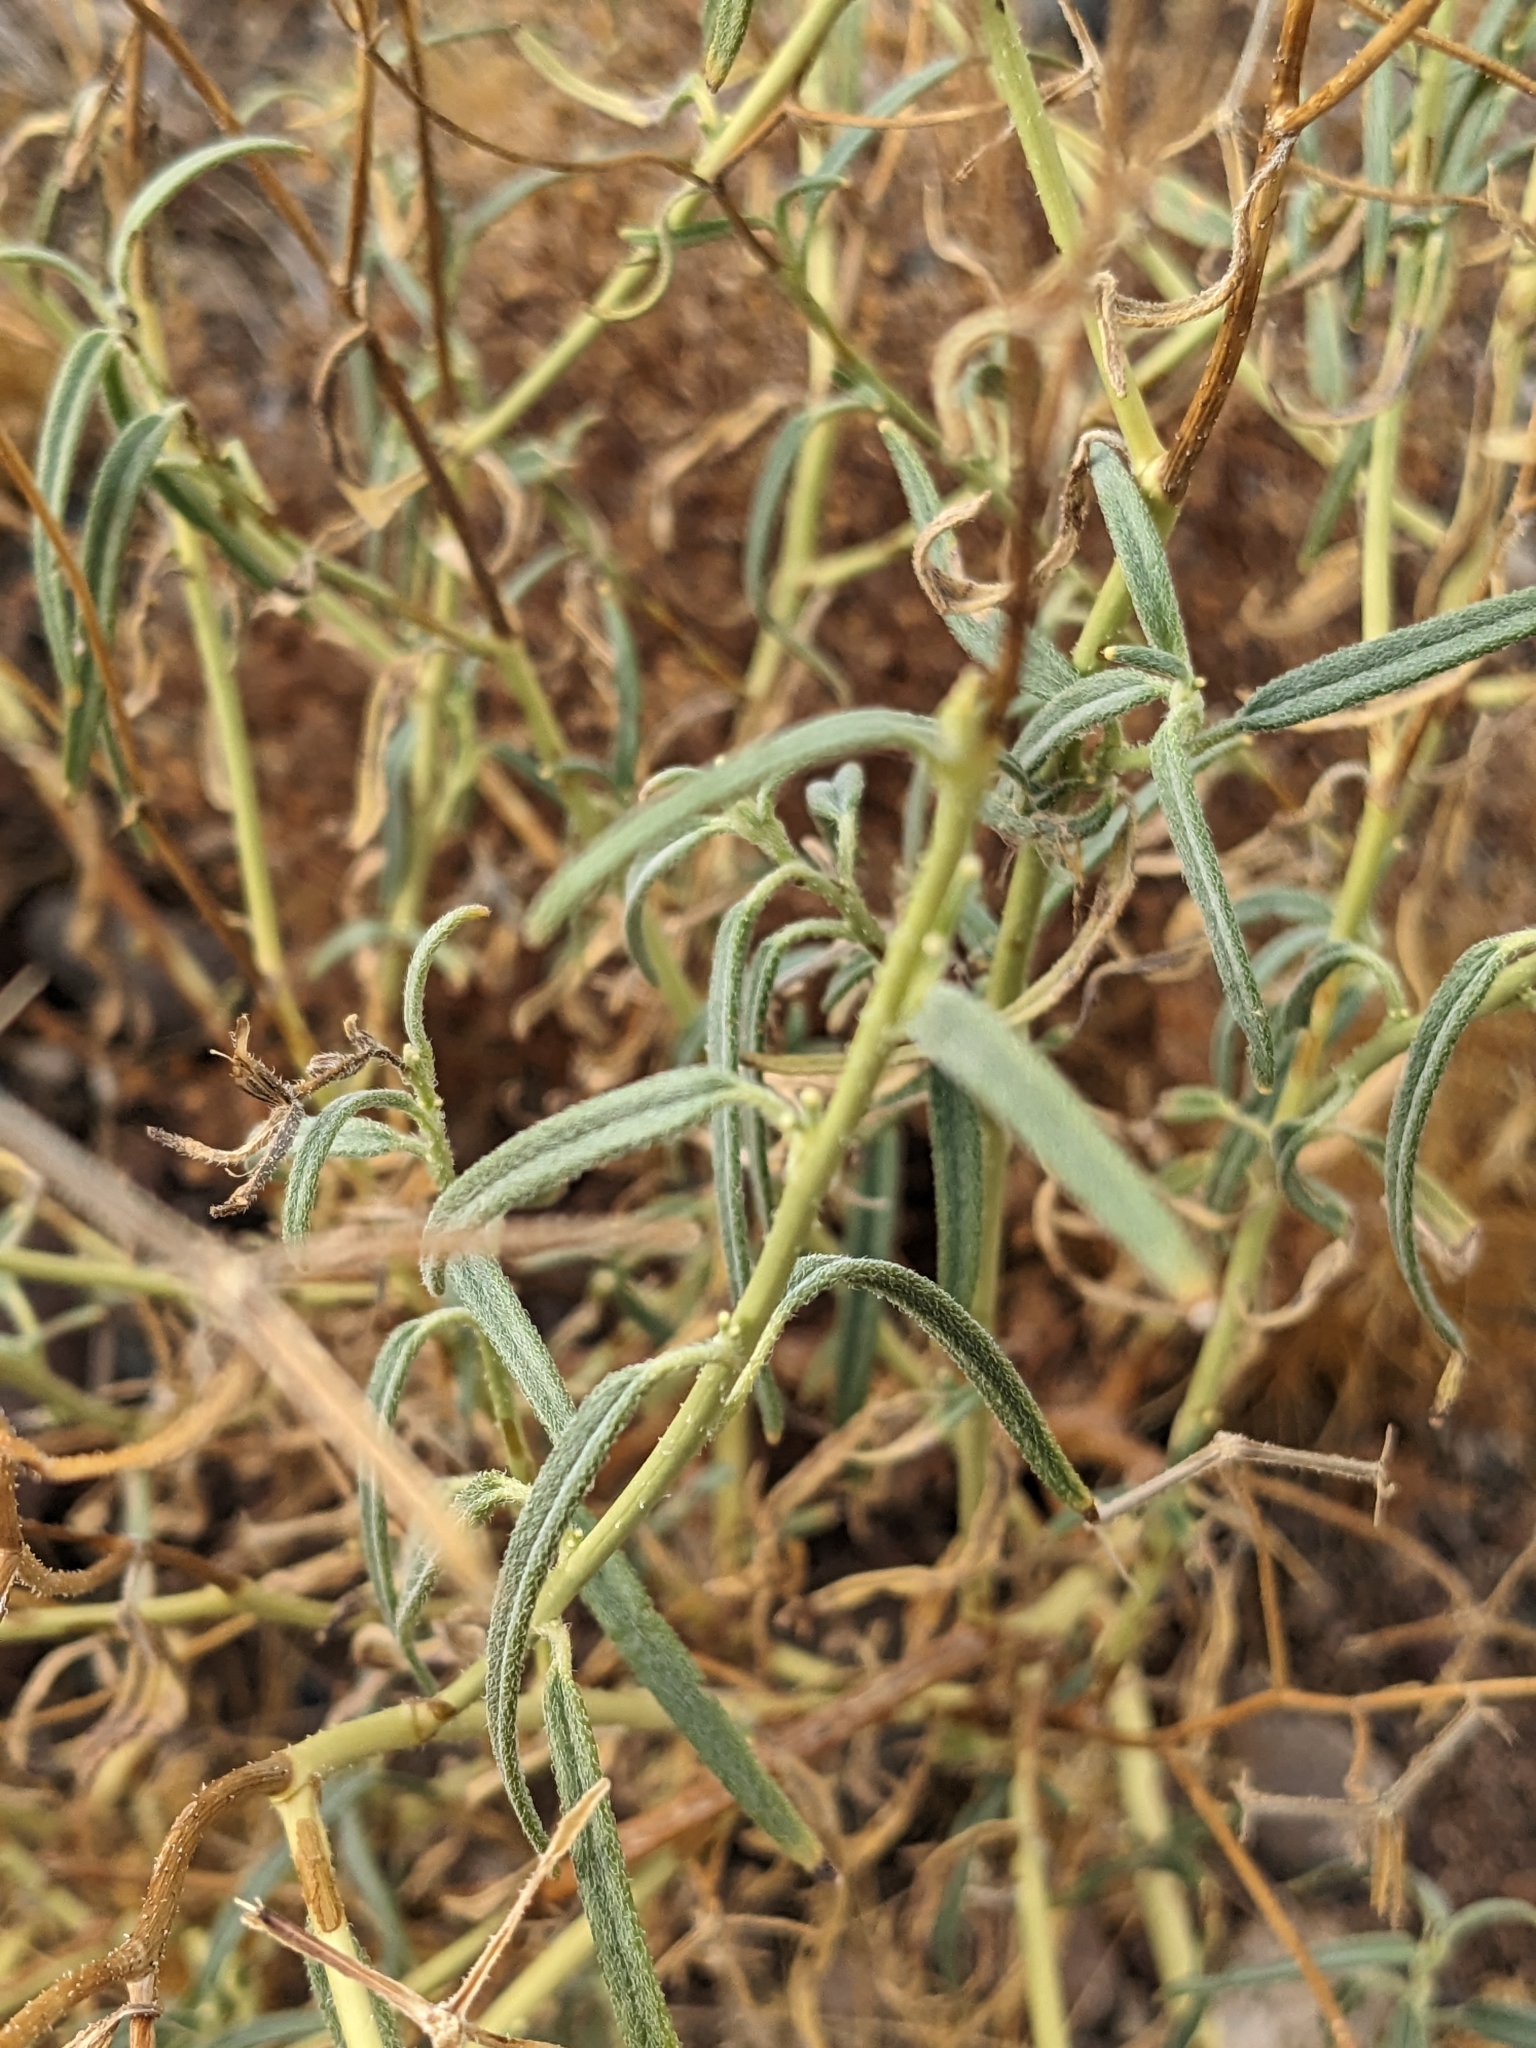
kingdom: Plantae
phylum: Tracheophyta
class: Magnoliopsida
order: Asterales
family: Asteraceae
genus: Palafoxia
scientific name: Palafoxia arida
